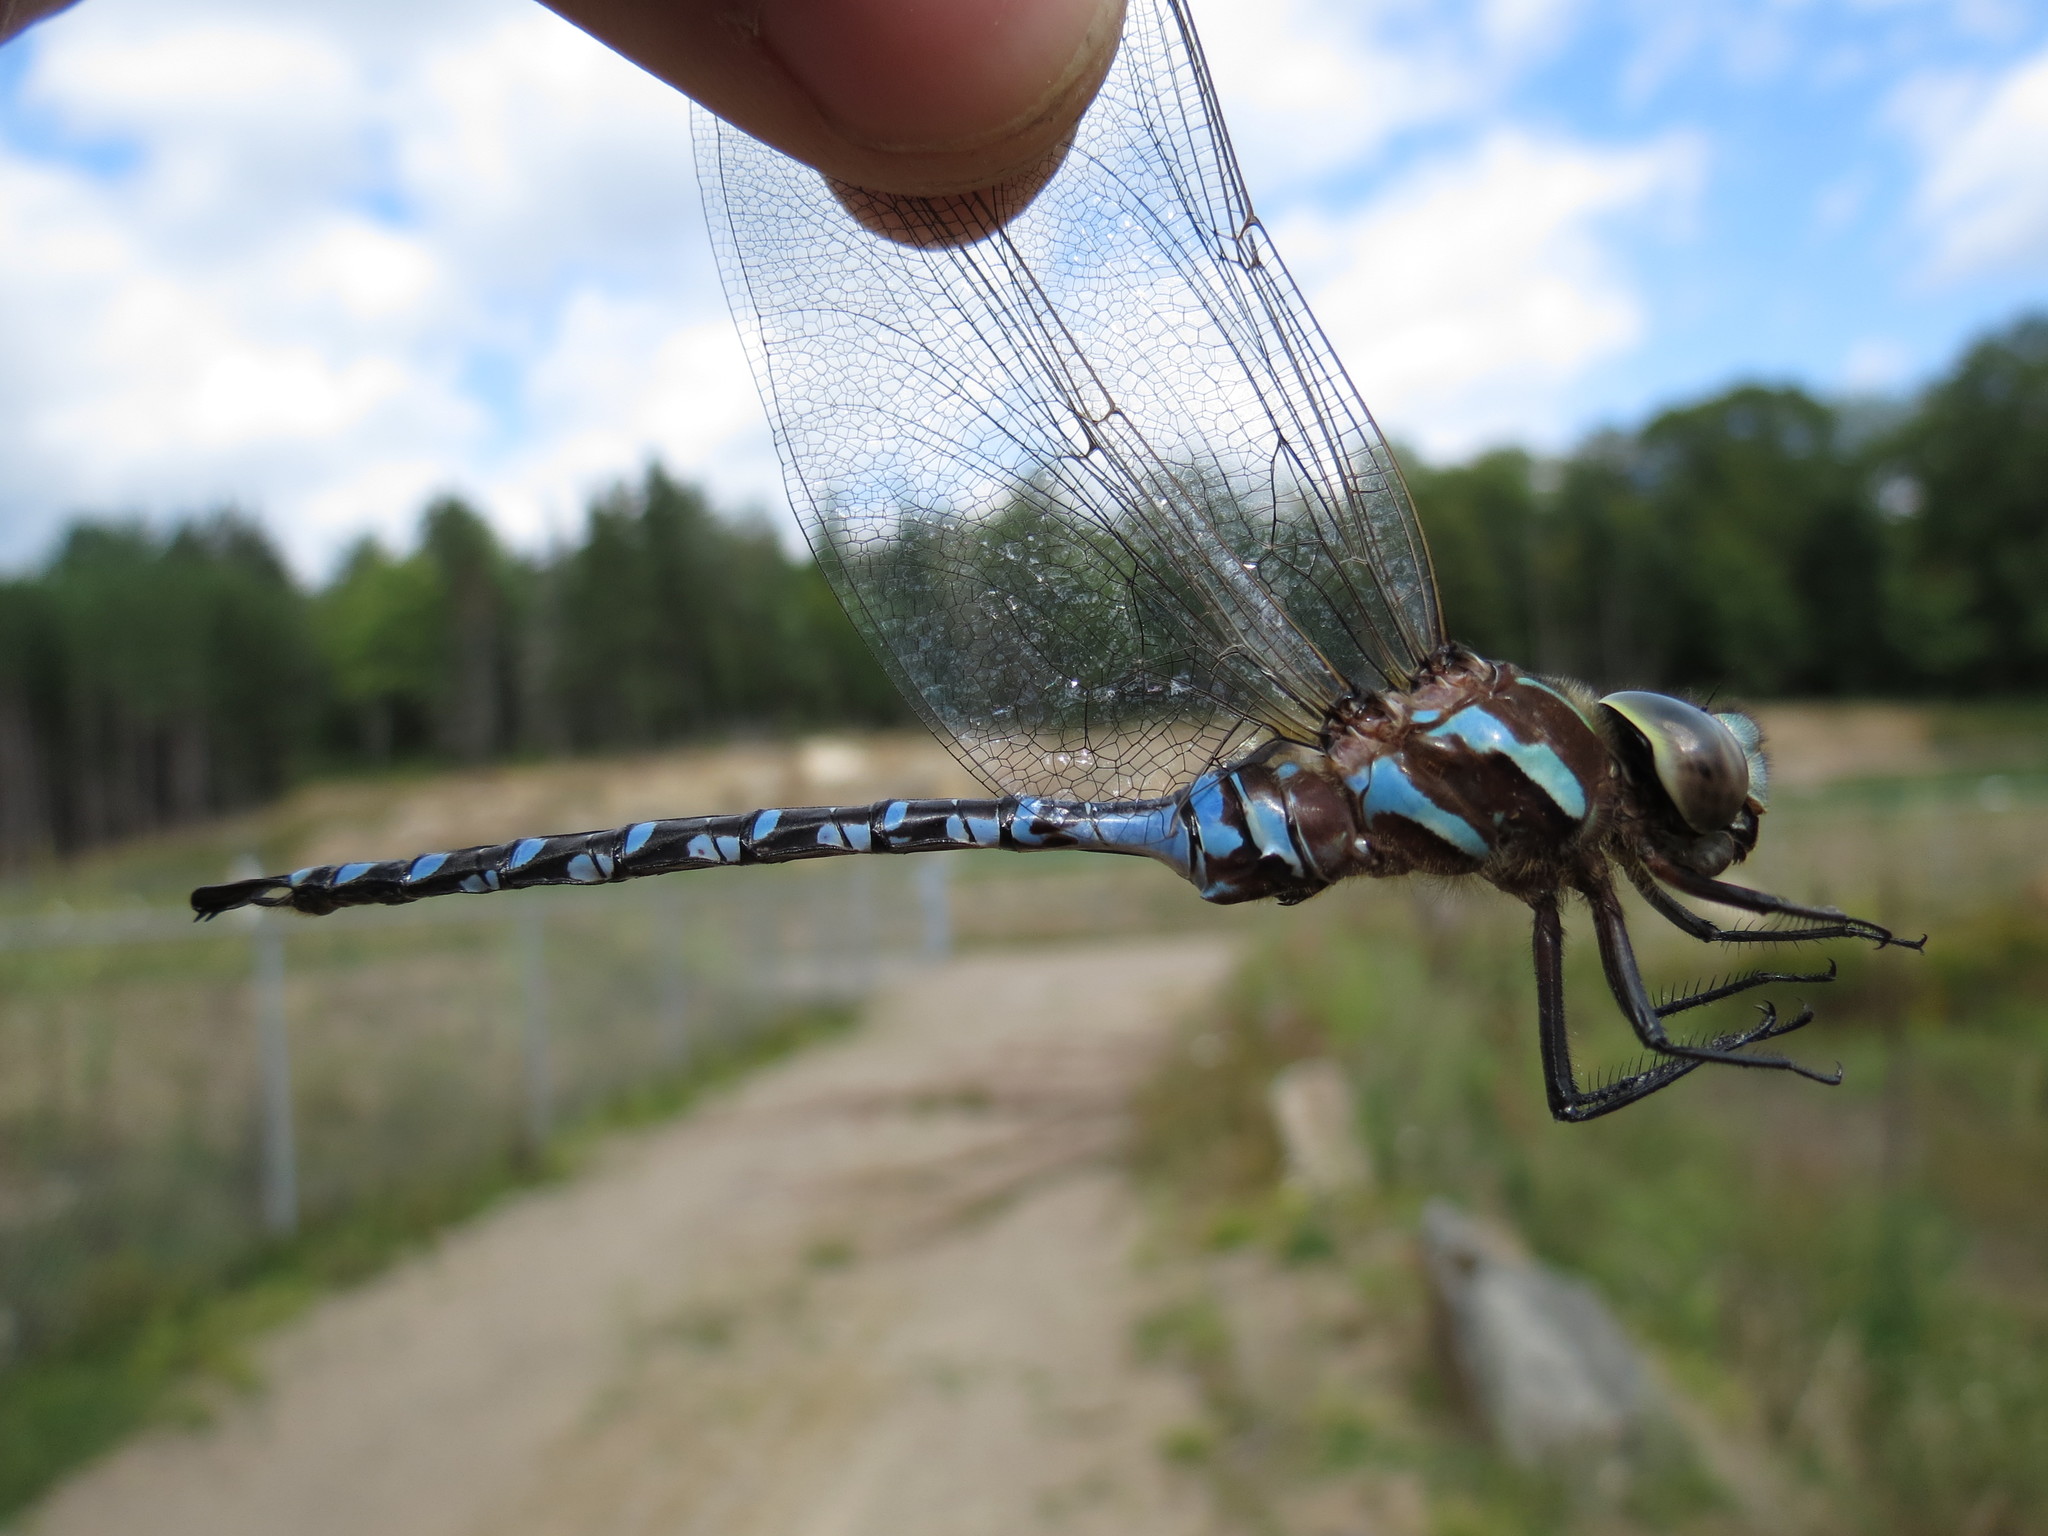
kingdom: Animalia
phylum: Arthropoda
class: Insecta
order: Odonata
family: Aeshnidae
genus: Aeshna
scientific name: Aeshna constricta
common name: Lance-tipped darner
